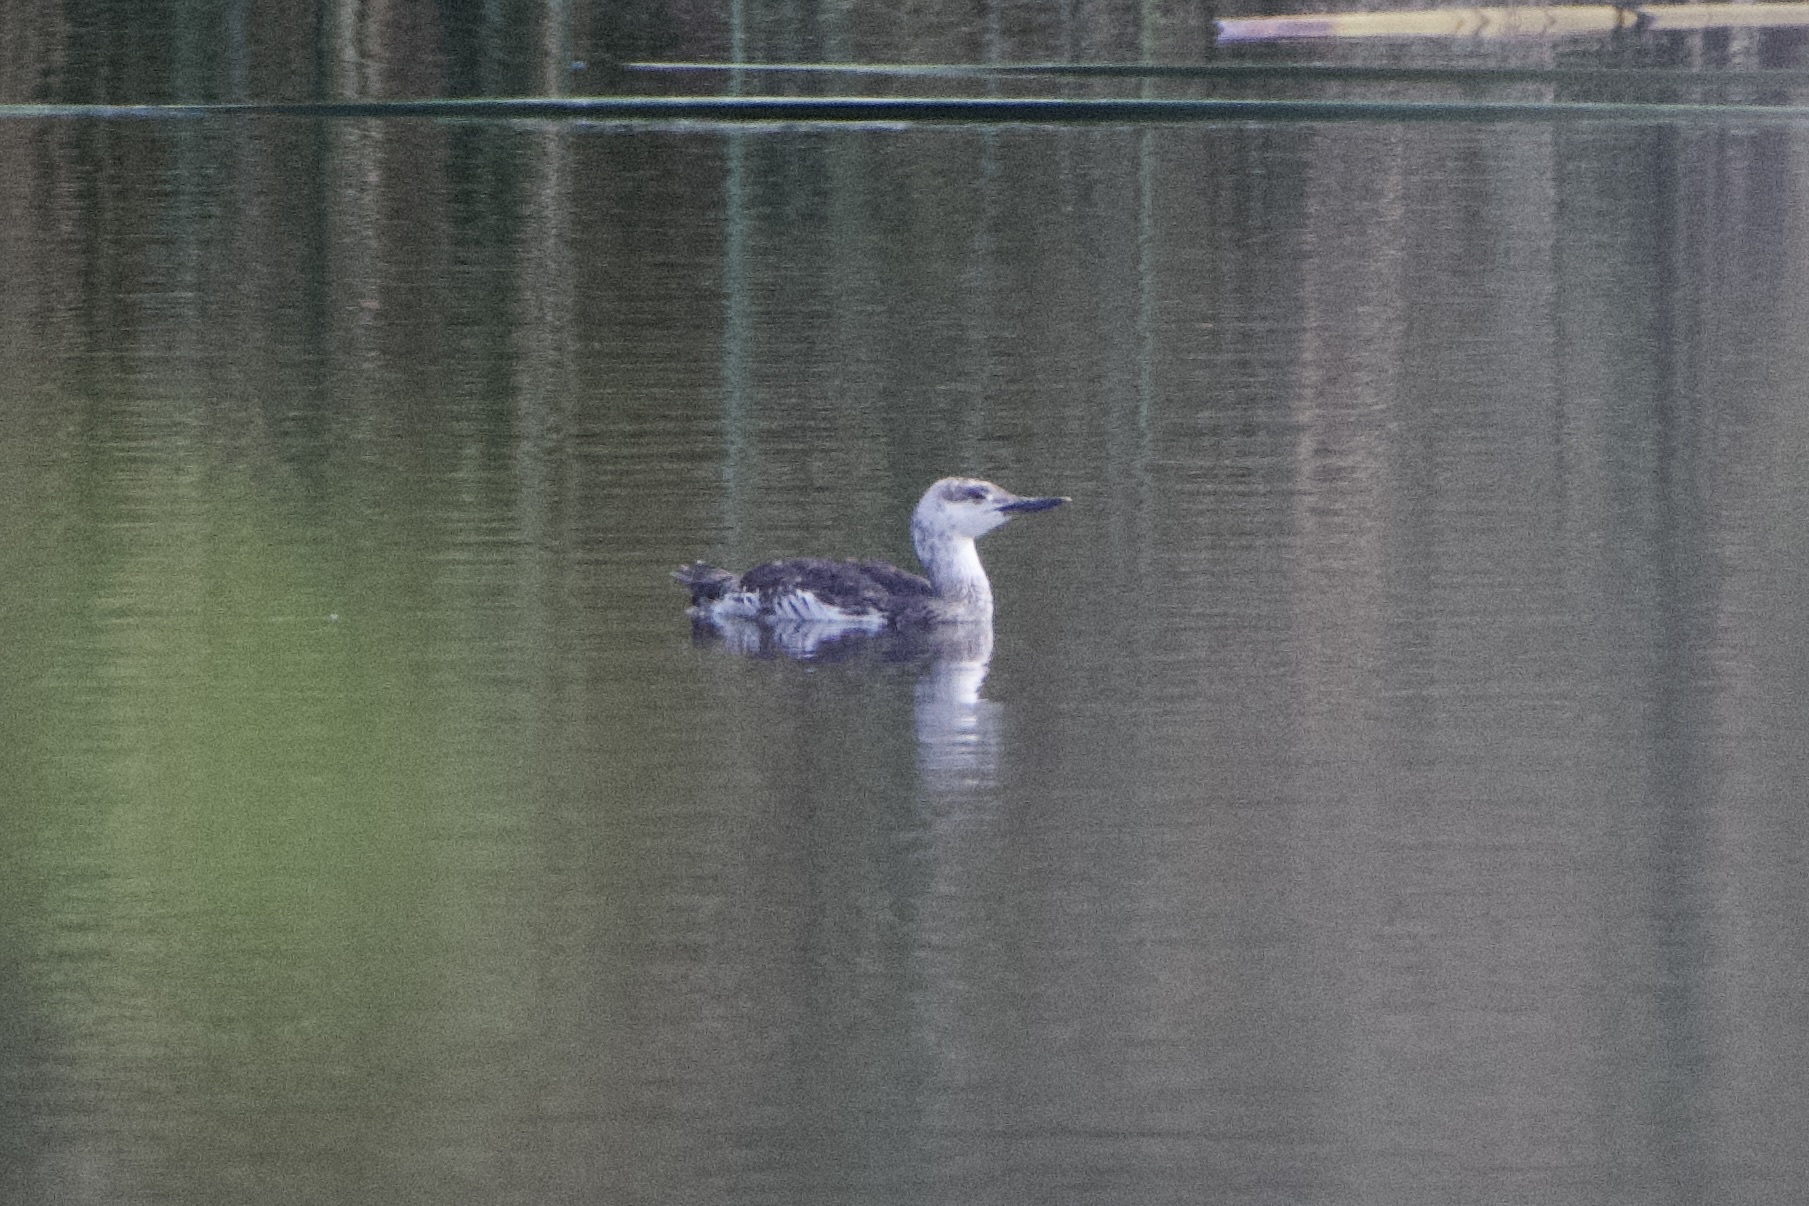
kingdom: Animalia
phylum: Chordata
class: Aves
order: Gaviiformes
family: Gaviidae
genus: Gavia
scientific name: Gavia stellata
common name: Red-throated loon
